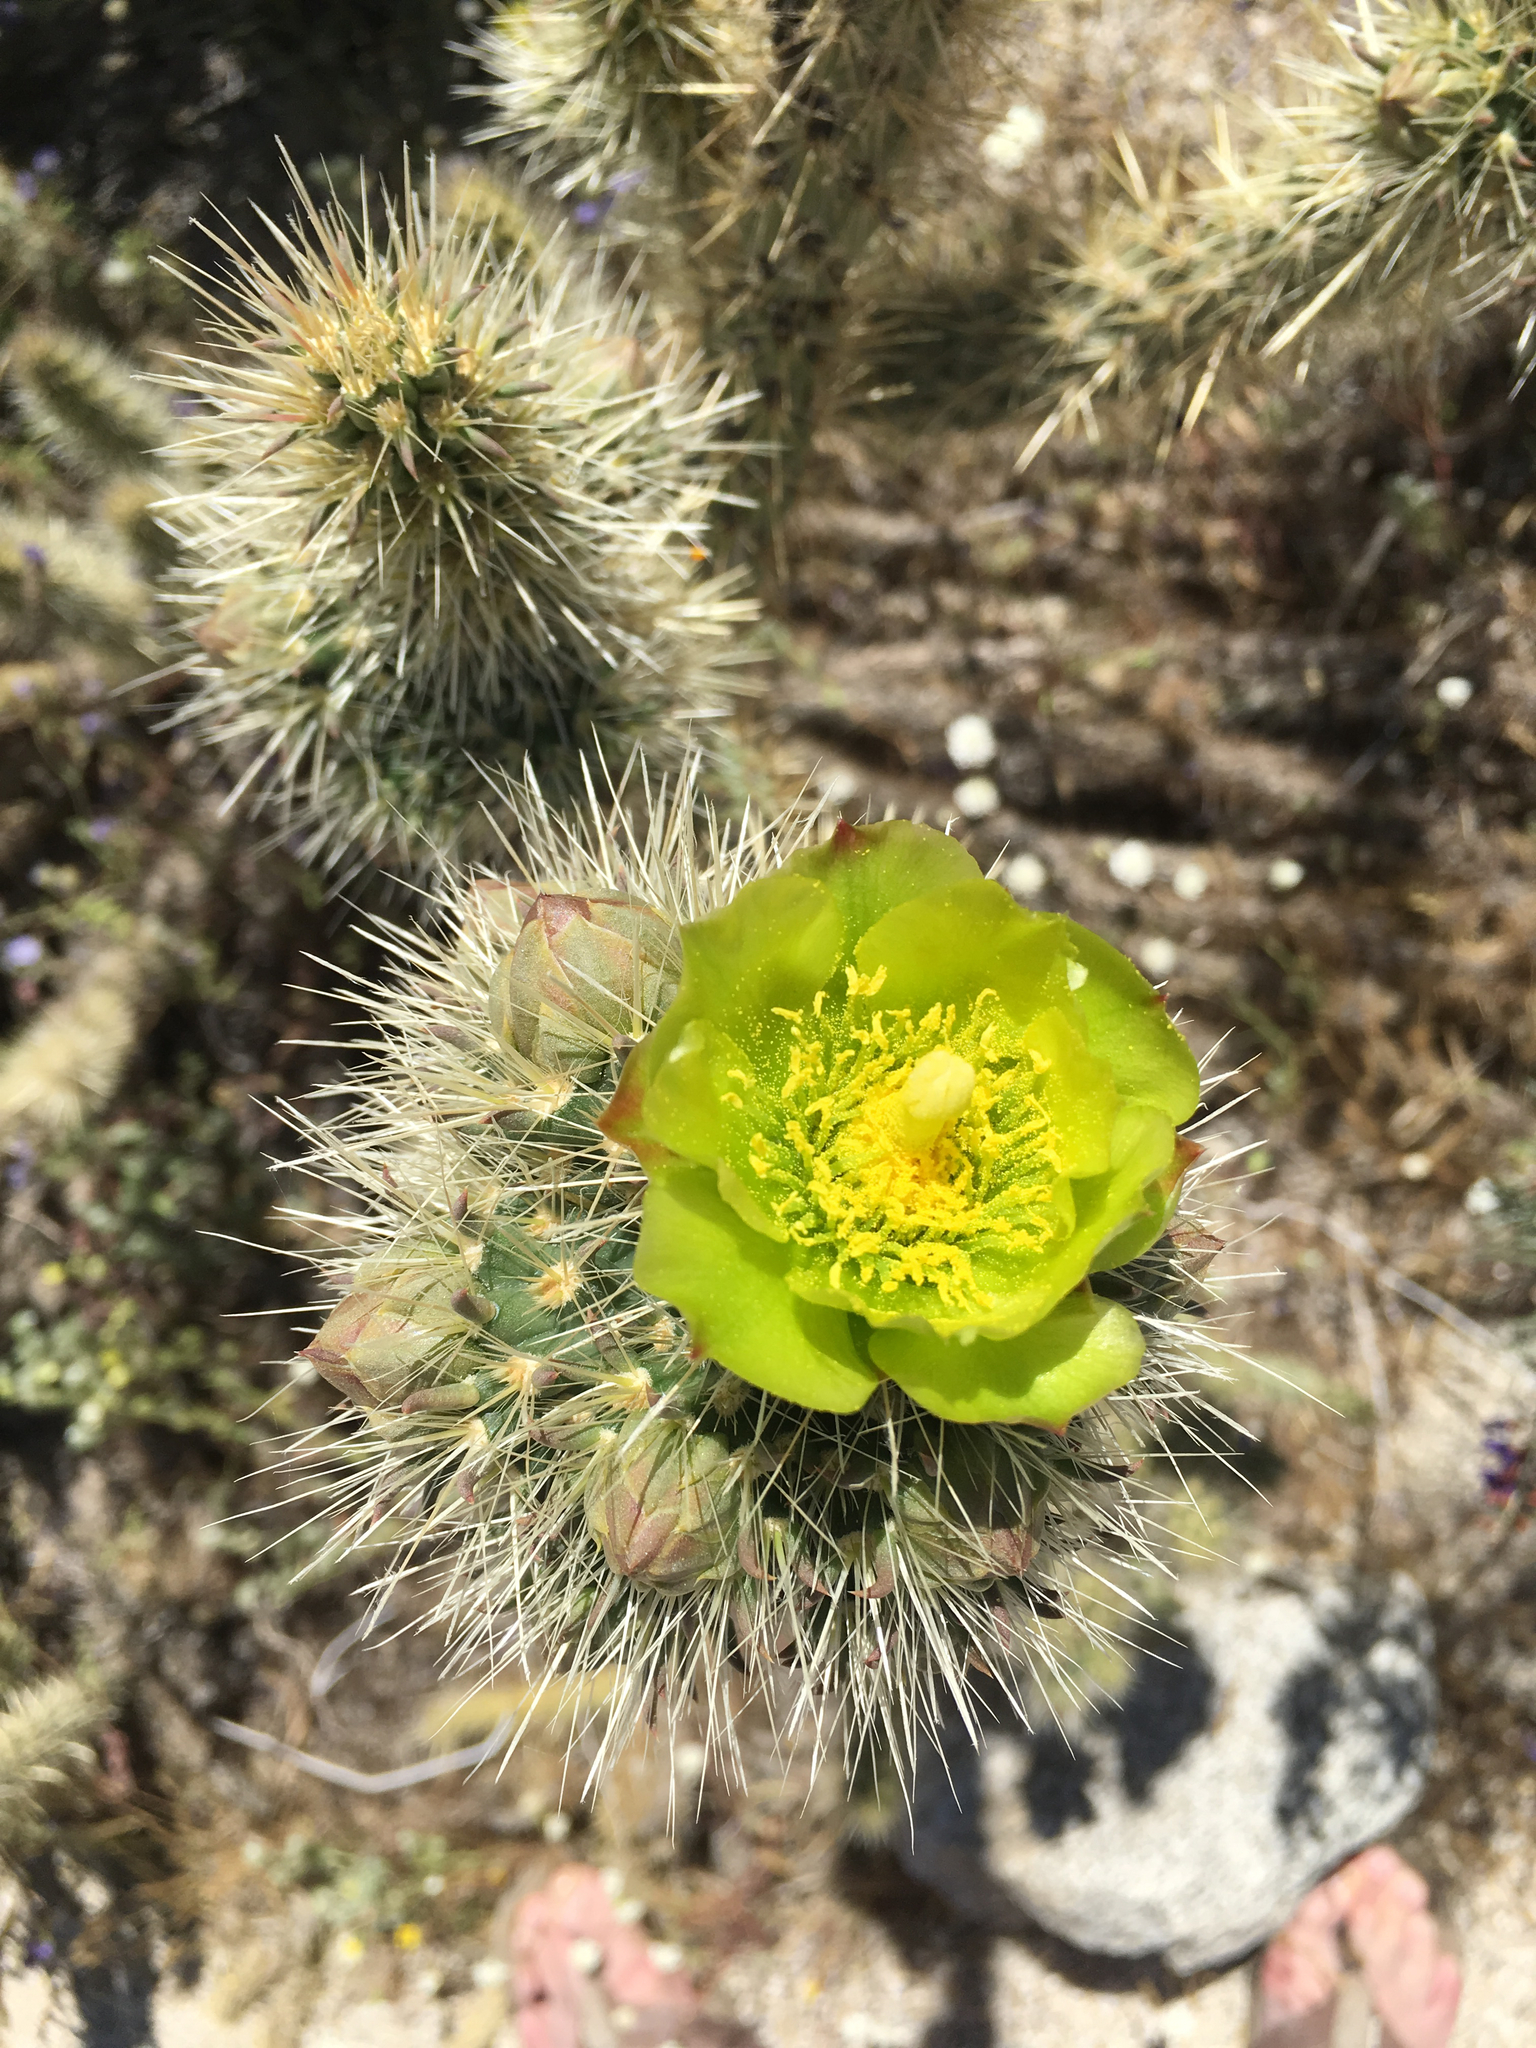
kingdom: Plantae
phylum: Tracheophyta
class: Magnoliopsida
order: Caryophyllales
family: Cactaceae
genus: Cylindropuntia
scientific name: Cylindropuntia ganderi
